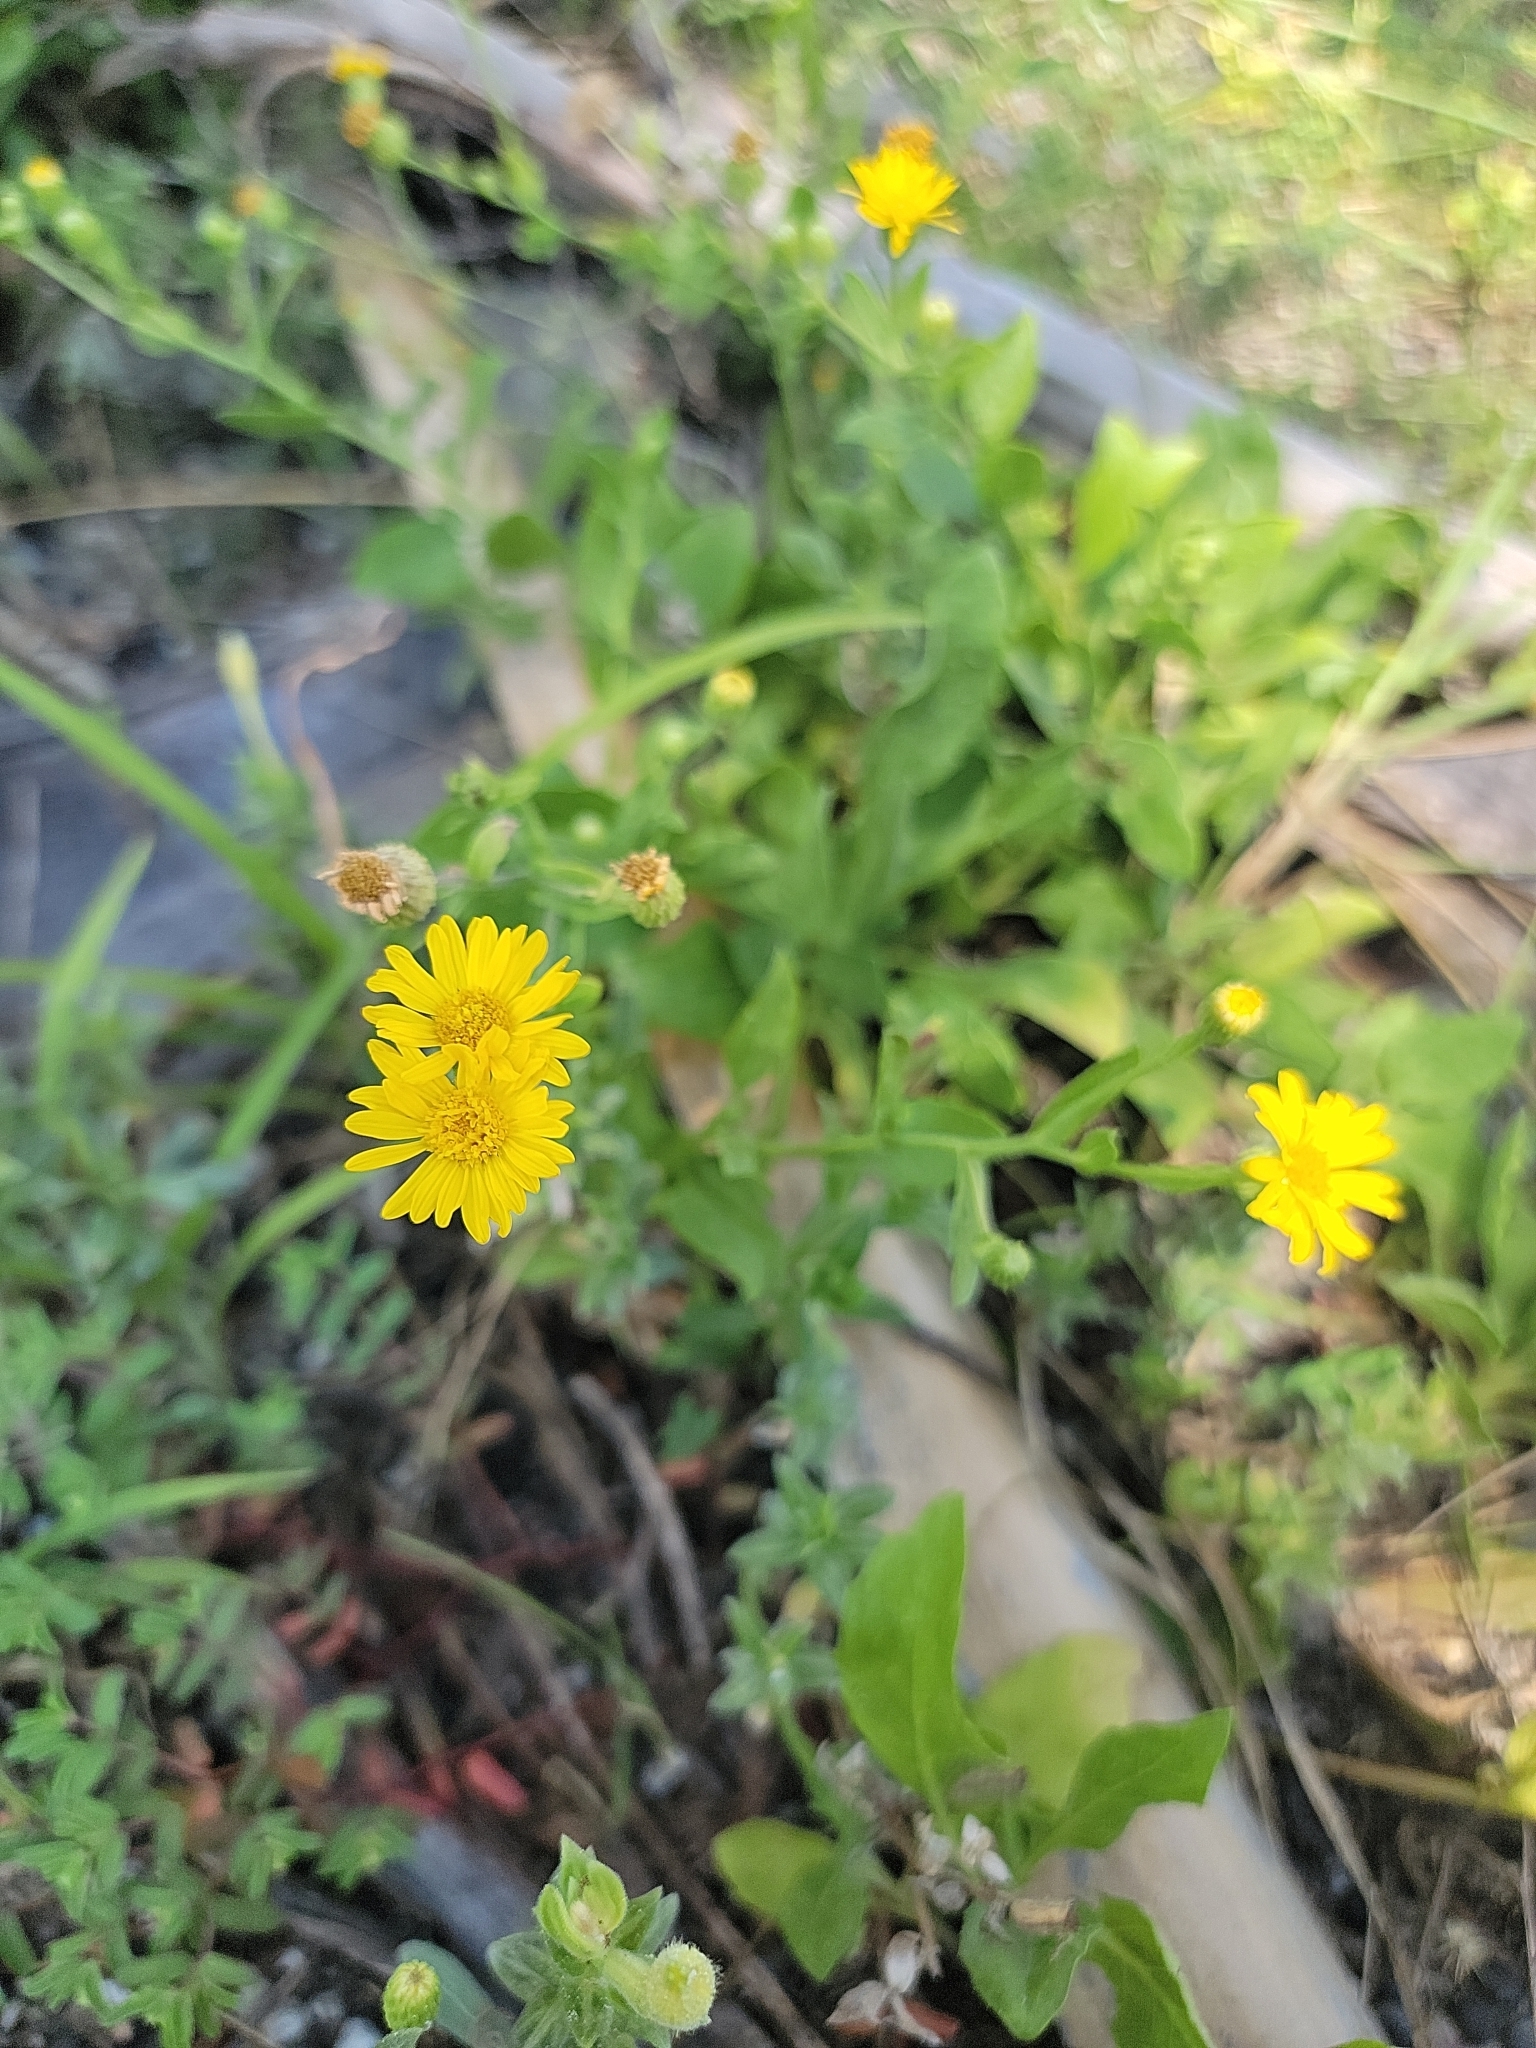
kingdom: Plantae
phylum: Tracheophyta
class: Magnoliopsida
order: Asterales
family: Asteraceae
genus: Heterotheca
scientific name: Heterotheca subaxillaris
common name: Camphorweed
